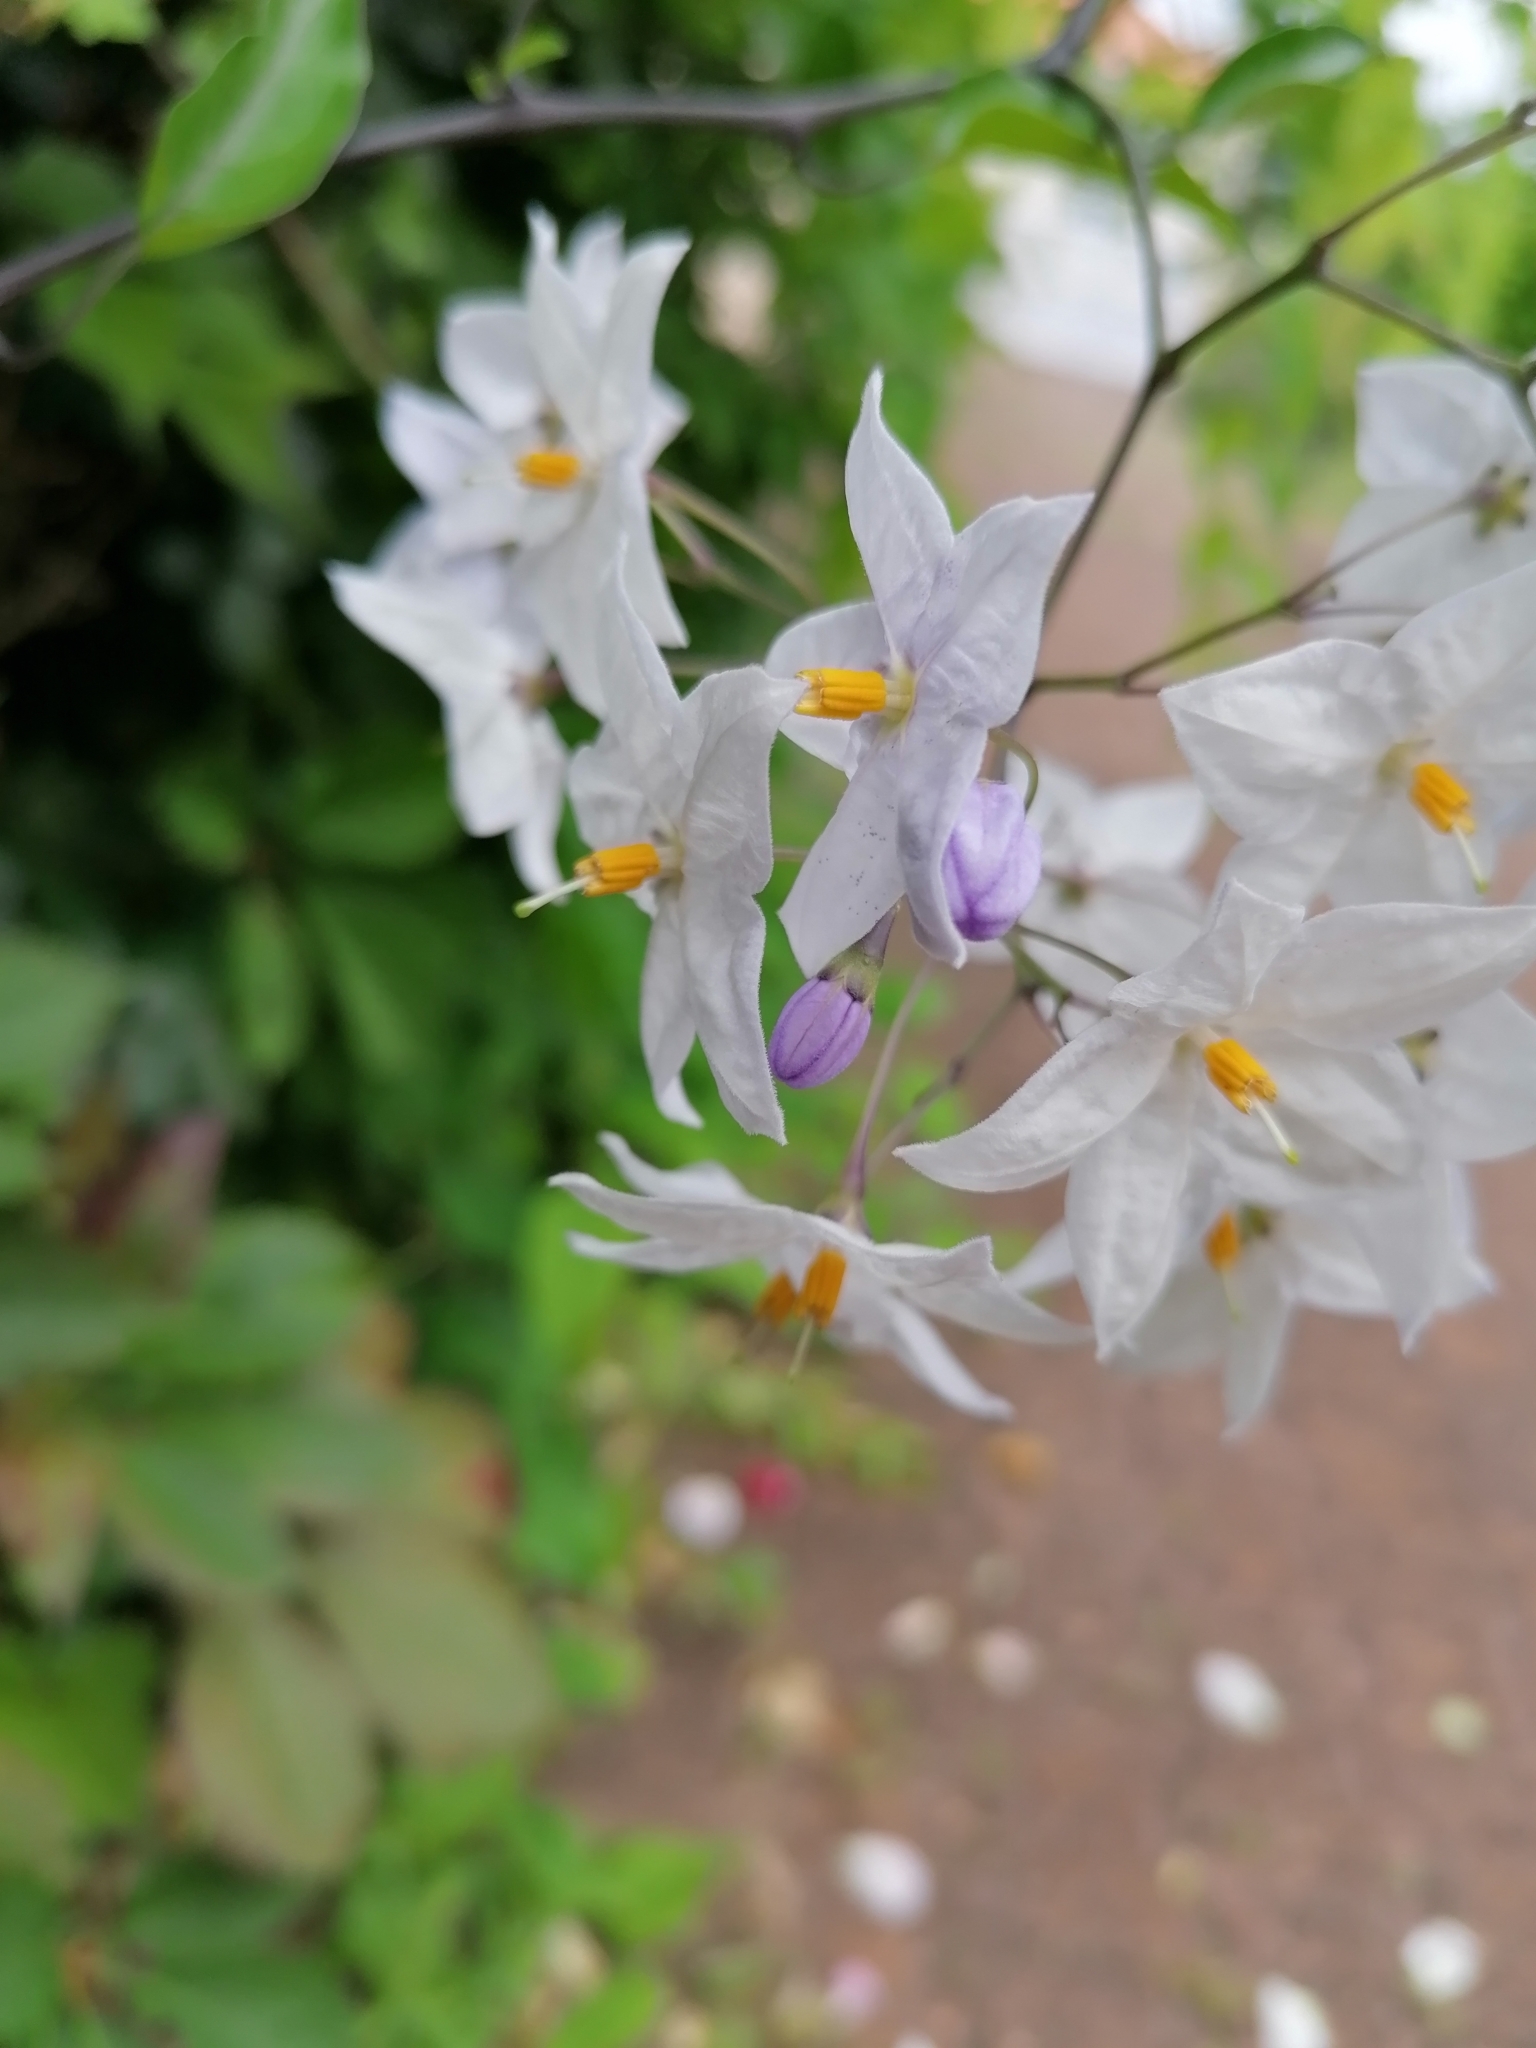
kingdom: Plantae
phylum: Tracheophyta
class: Magnoliopsida
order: Solanales
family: Solanaceae
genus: Solanum
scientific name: Solanum laxum
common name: Nightshade
